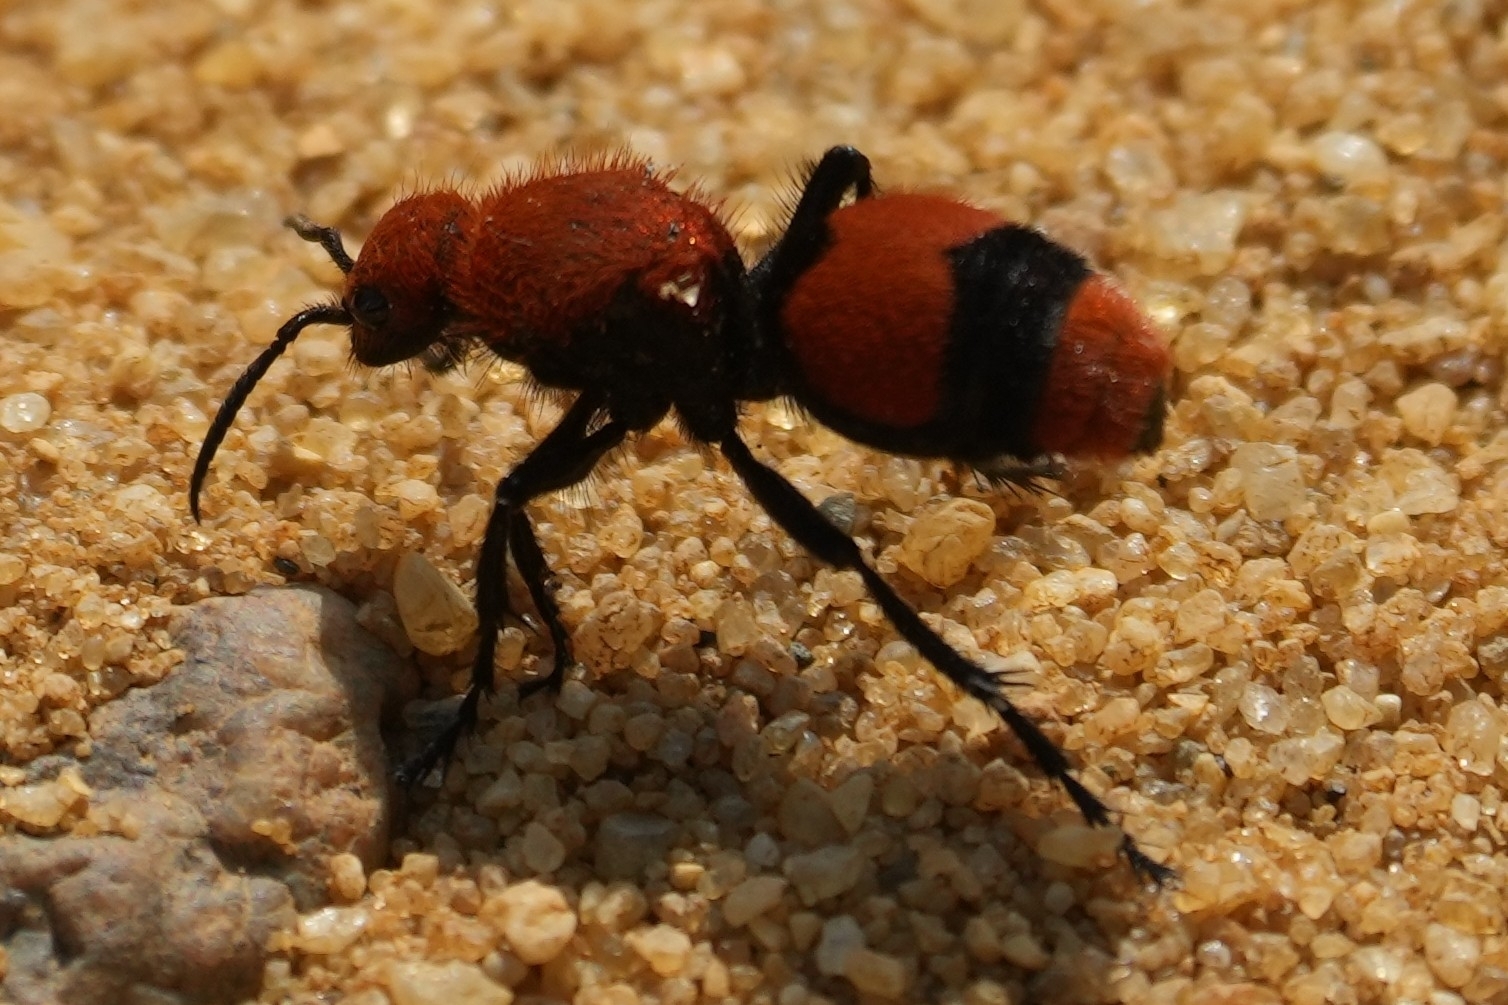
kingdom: Animalia
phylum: Arthropoda
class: Insecta
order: Hymenoptera
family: Mutillidae
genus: Dasymutilla
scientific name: Dasymutilla occidentalis
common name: Common eastern velvet ant
